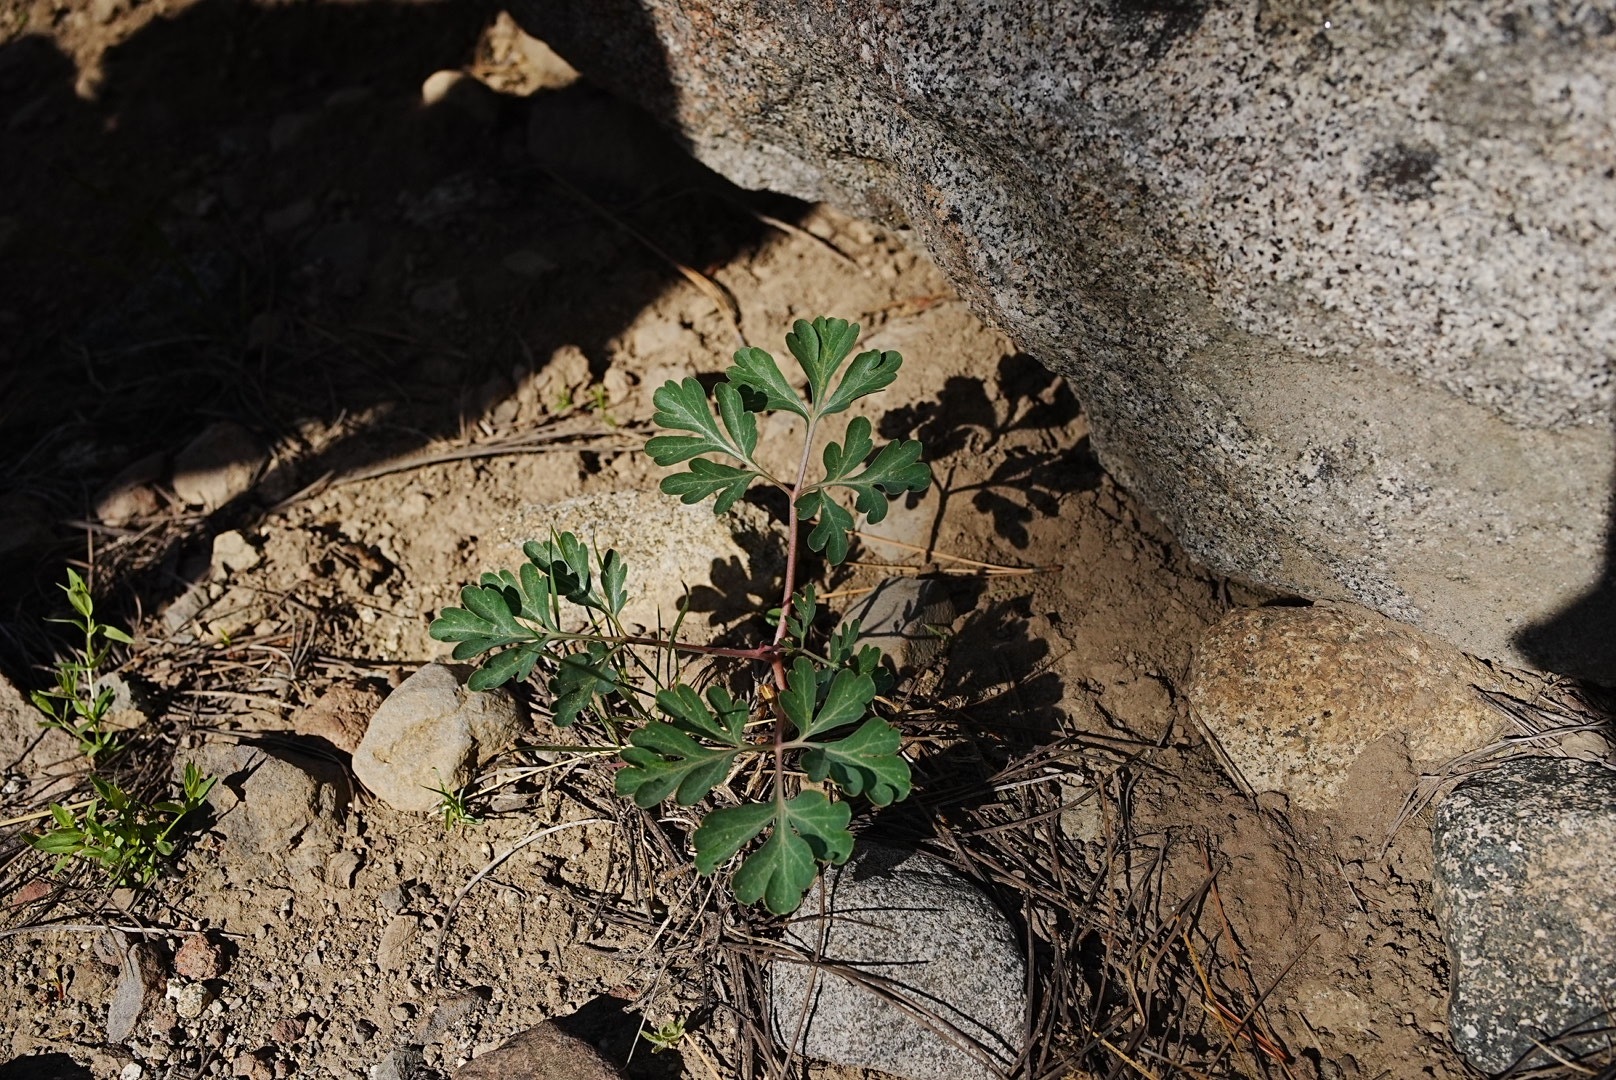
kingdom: Plantae
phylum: Tracheophyta
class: Magnoliopsida
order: Saxifragales
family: Paeoniaceae
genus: Paeonia
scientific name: Paeonia brownii
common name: Brown's peony
